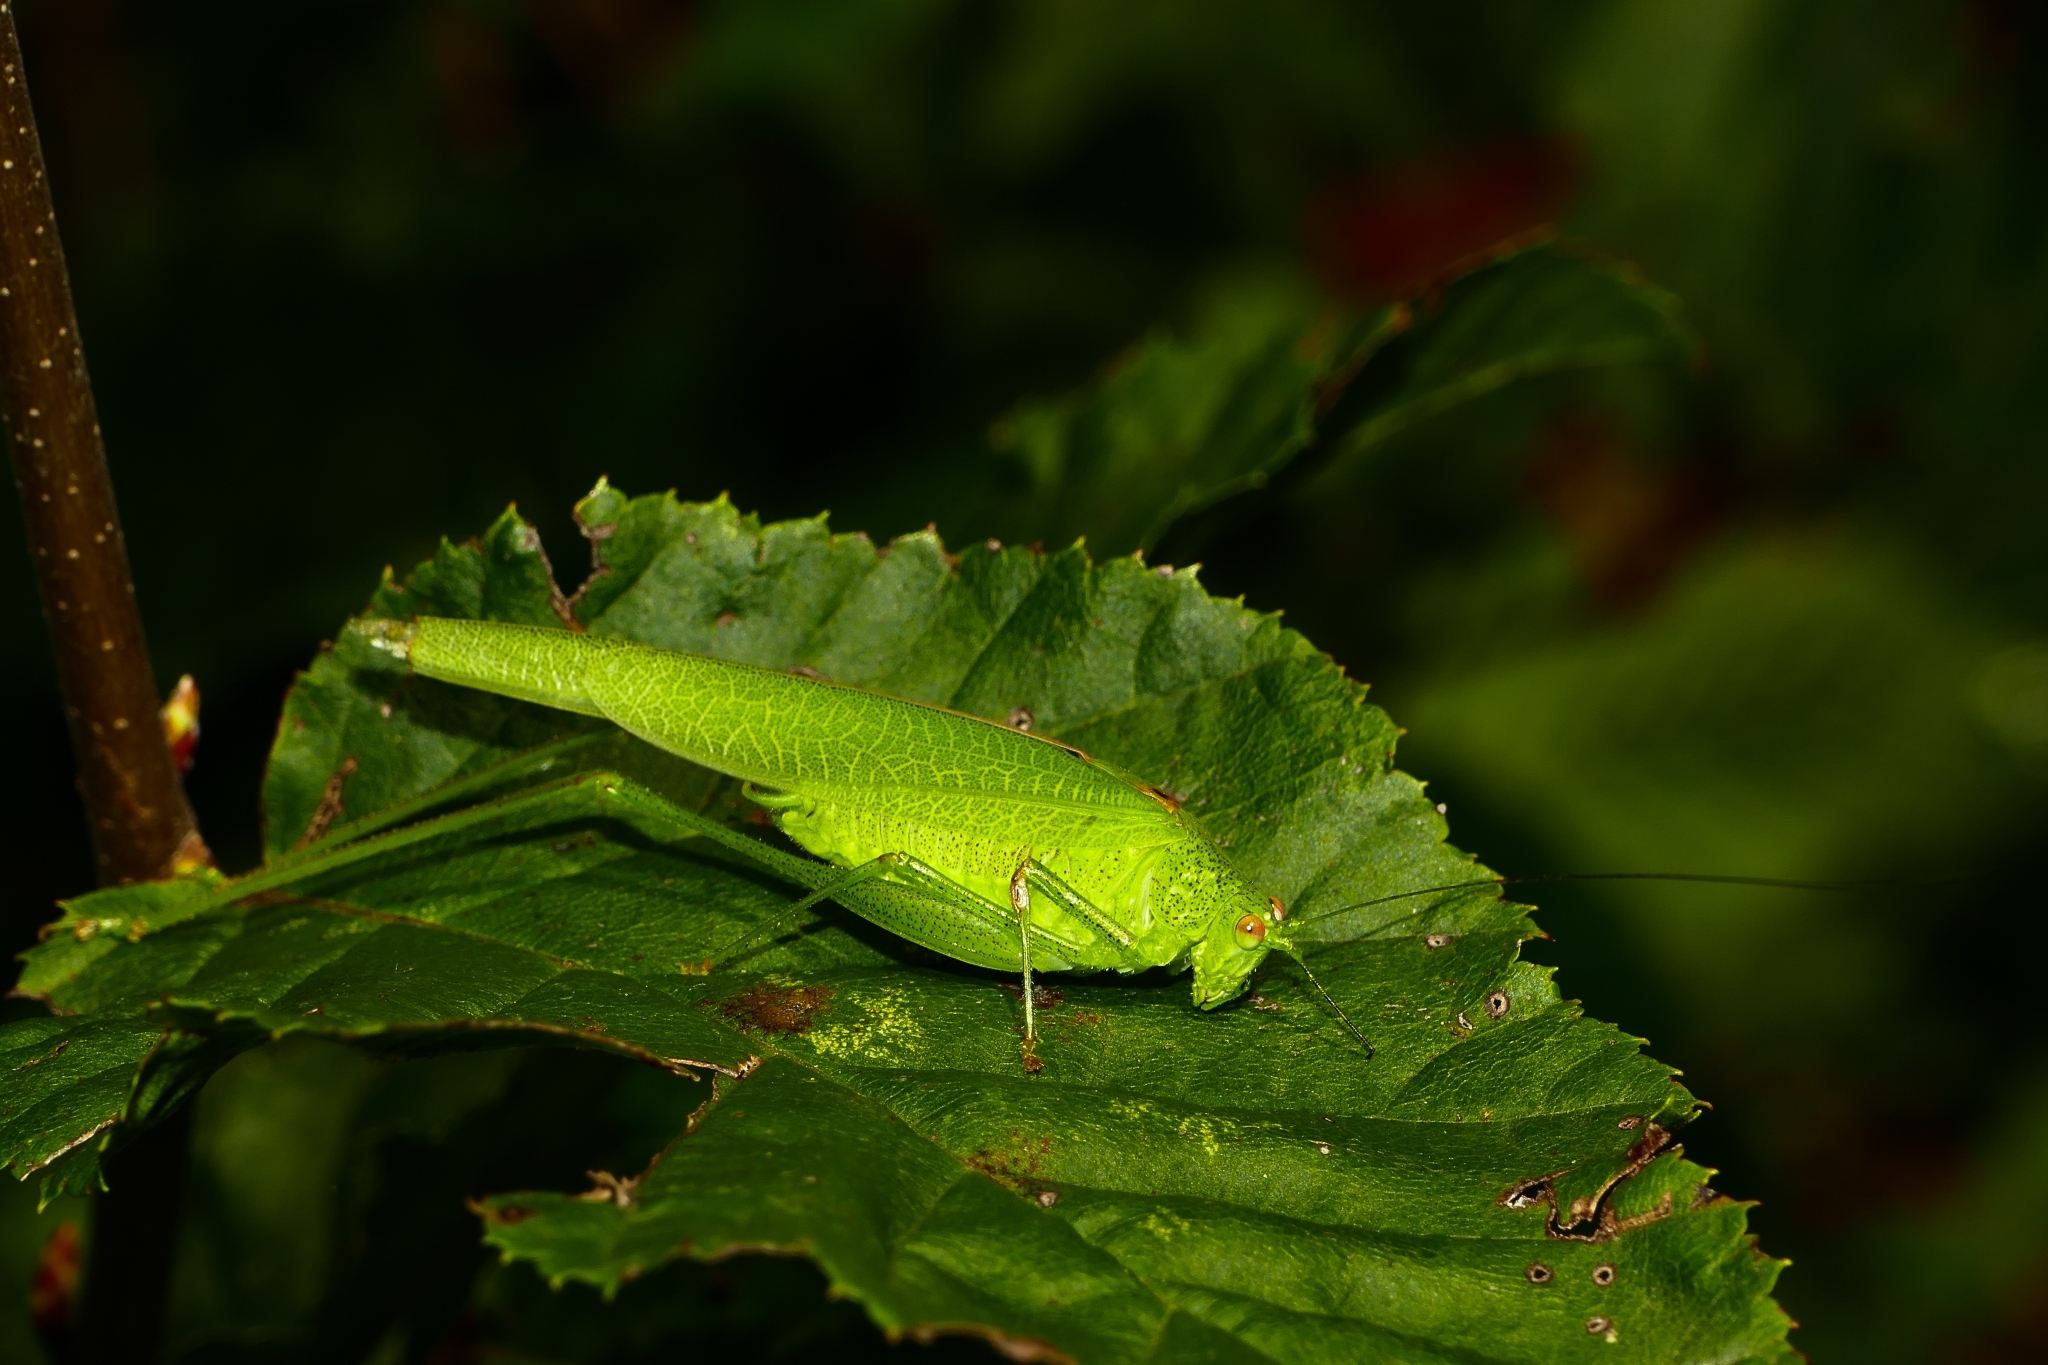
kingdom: Animalia
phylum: Arthropoda
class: Insecta
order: Orthoptera
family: Tettigoniidae
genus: Phaneroptera
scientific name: Phaneroptera nana
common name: Southern sickle bush-cricket
